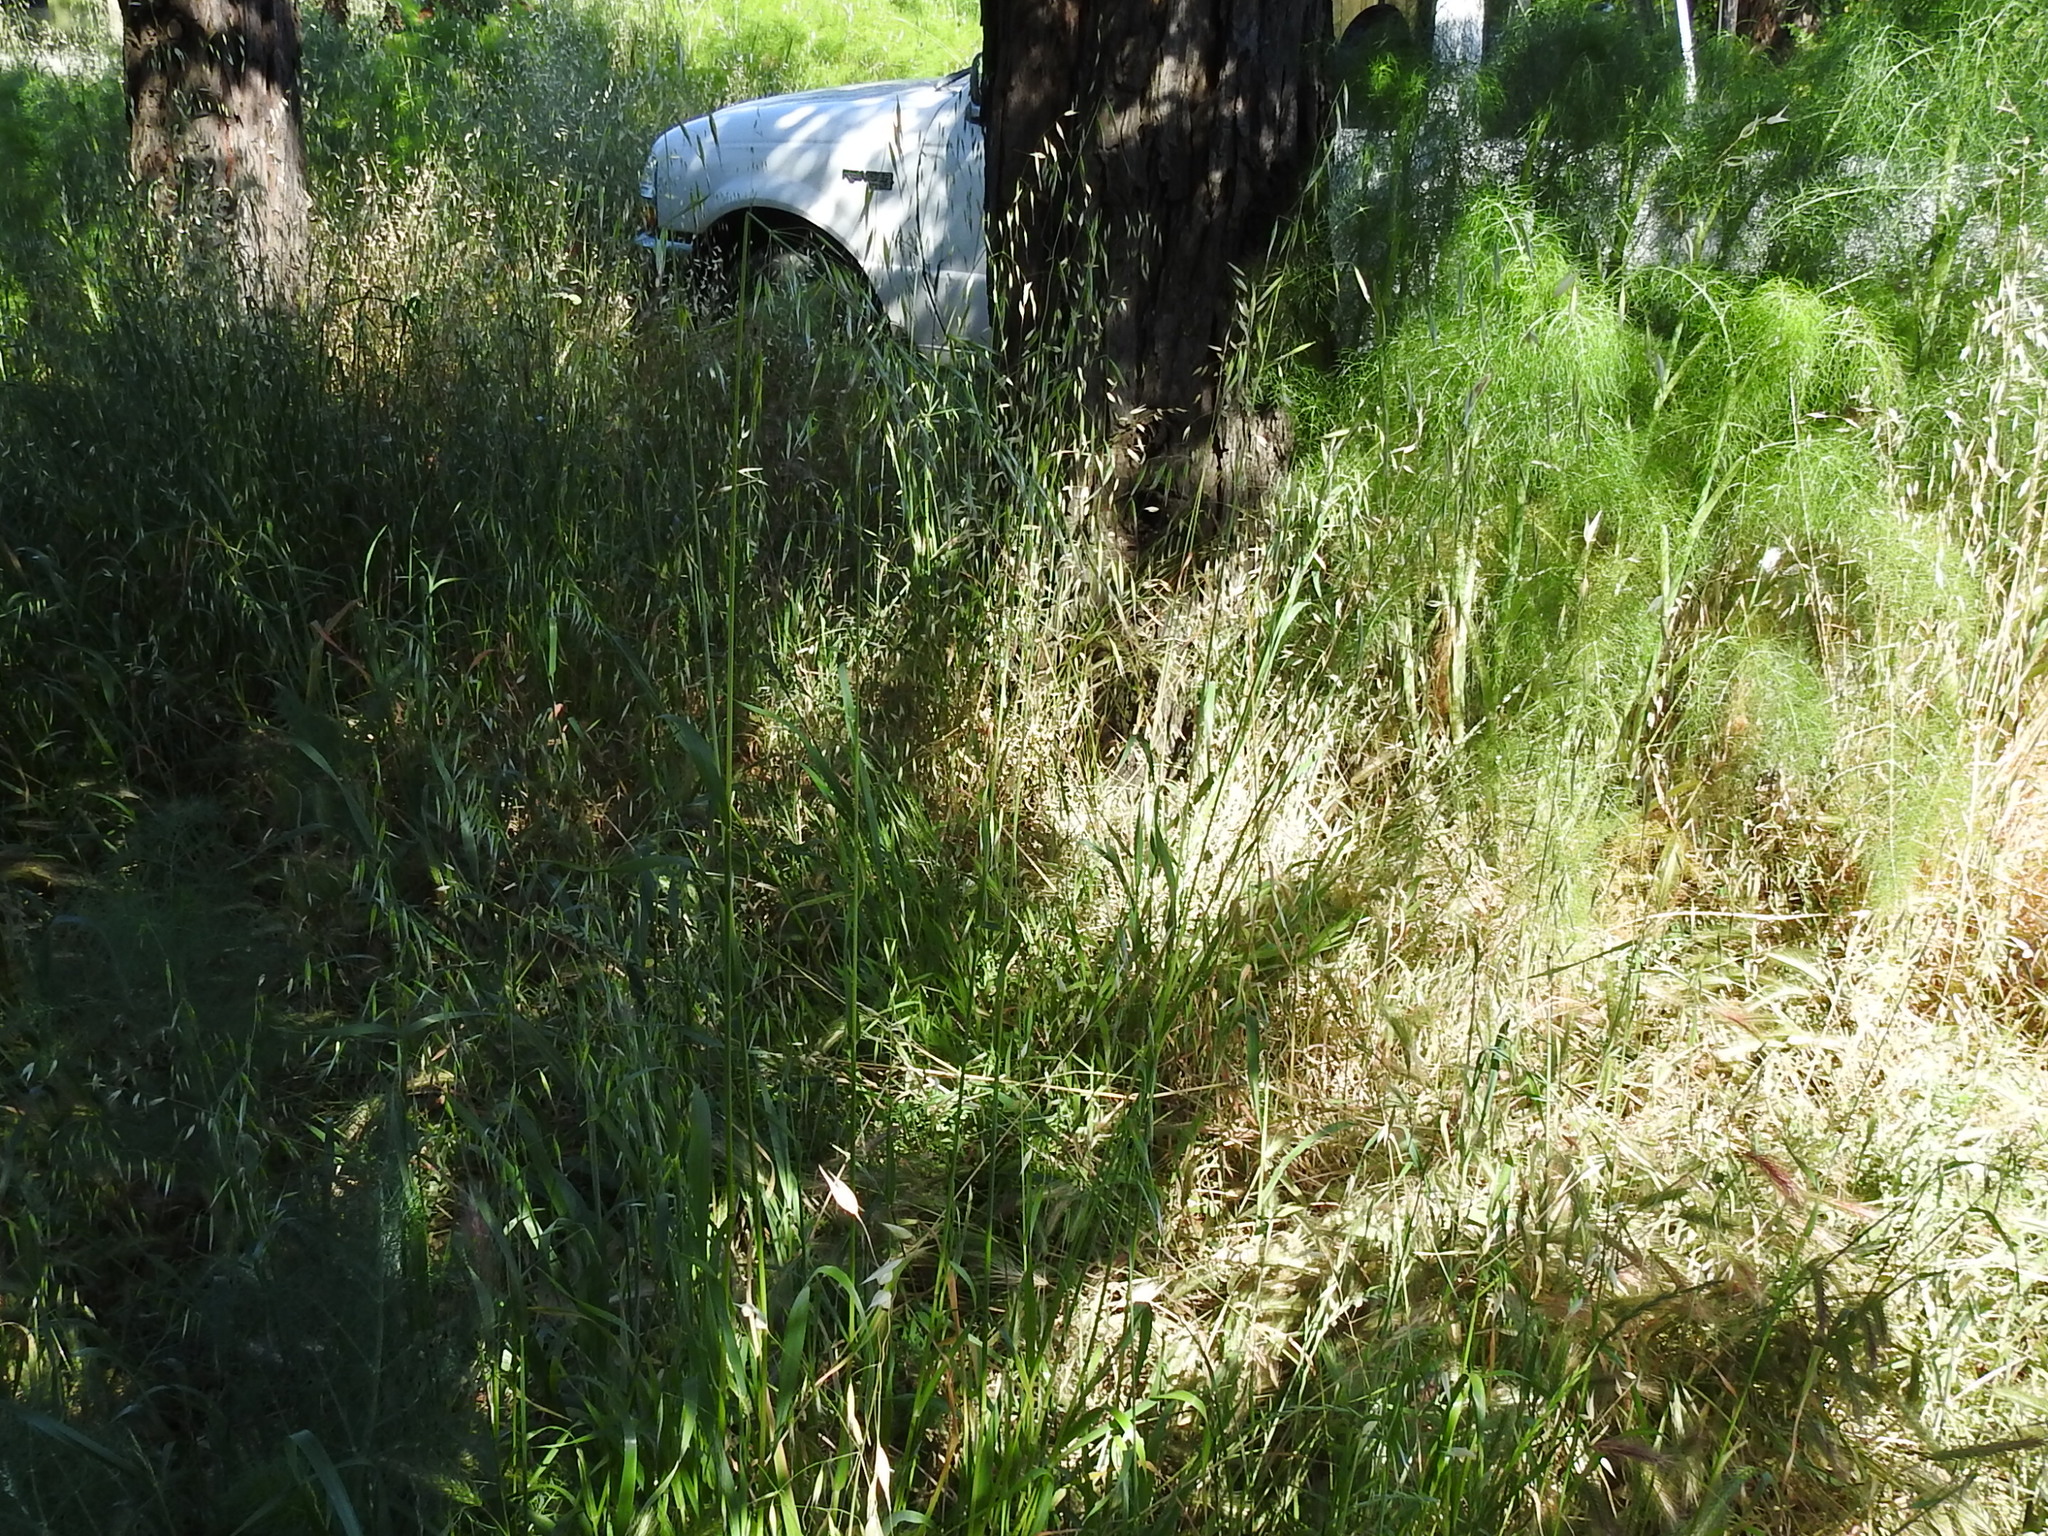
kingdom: Plantae
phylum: Tracheophyta
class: Liliopsida
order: Poales
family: Poaceae
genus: Avena
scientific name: Avena barbata
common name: Slender oat
